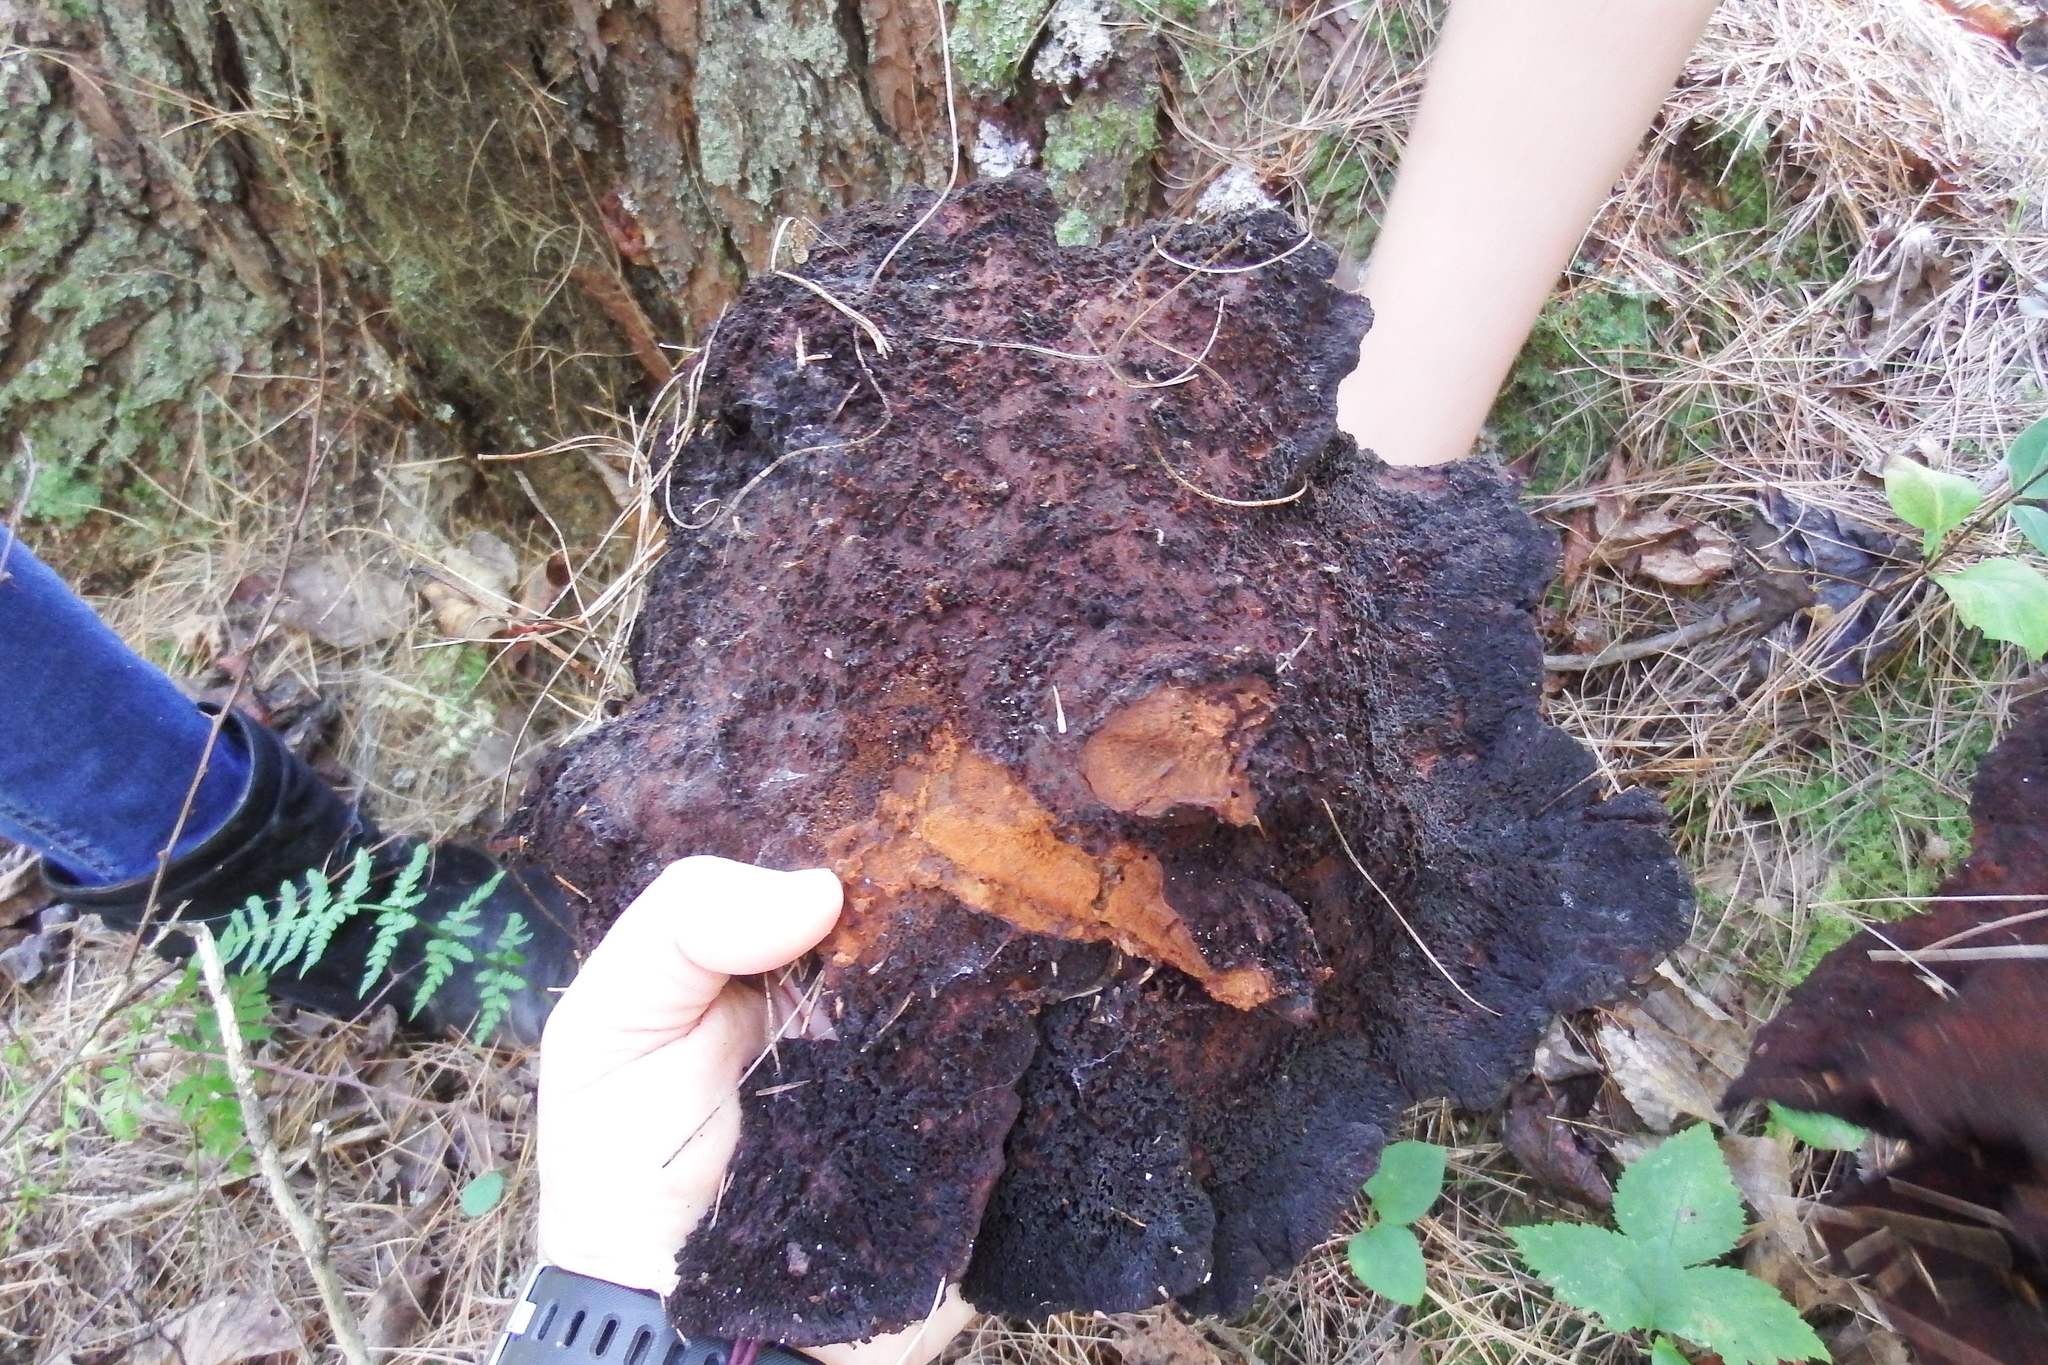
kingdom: Fungi
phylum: Basidiomycota
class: Agaricomycetes
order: Polyporales
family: Laetiporaceae
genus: Phaeolus
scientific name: Phaeolus schweinitzii
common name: Dyer's mazegill
